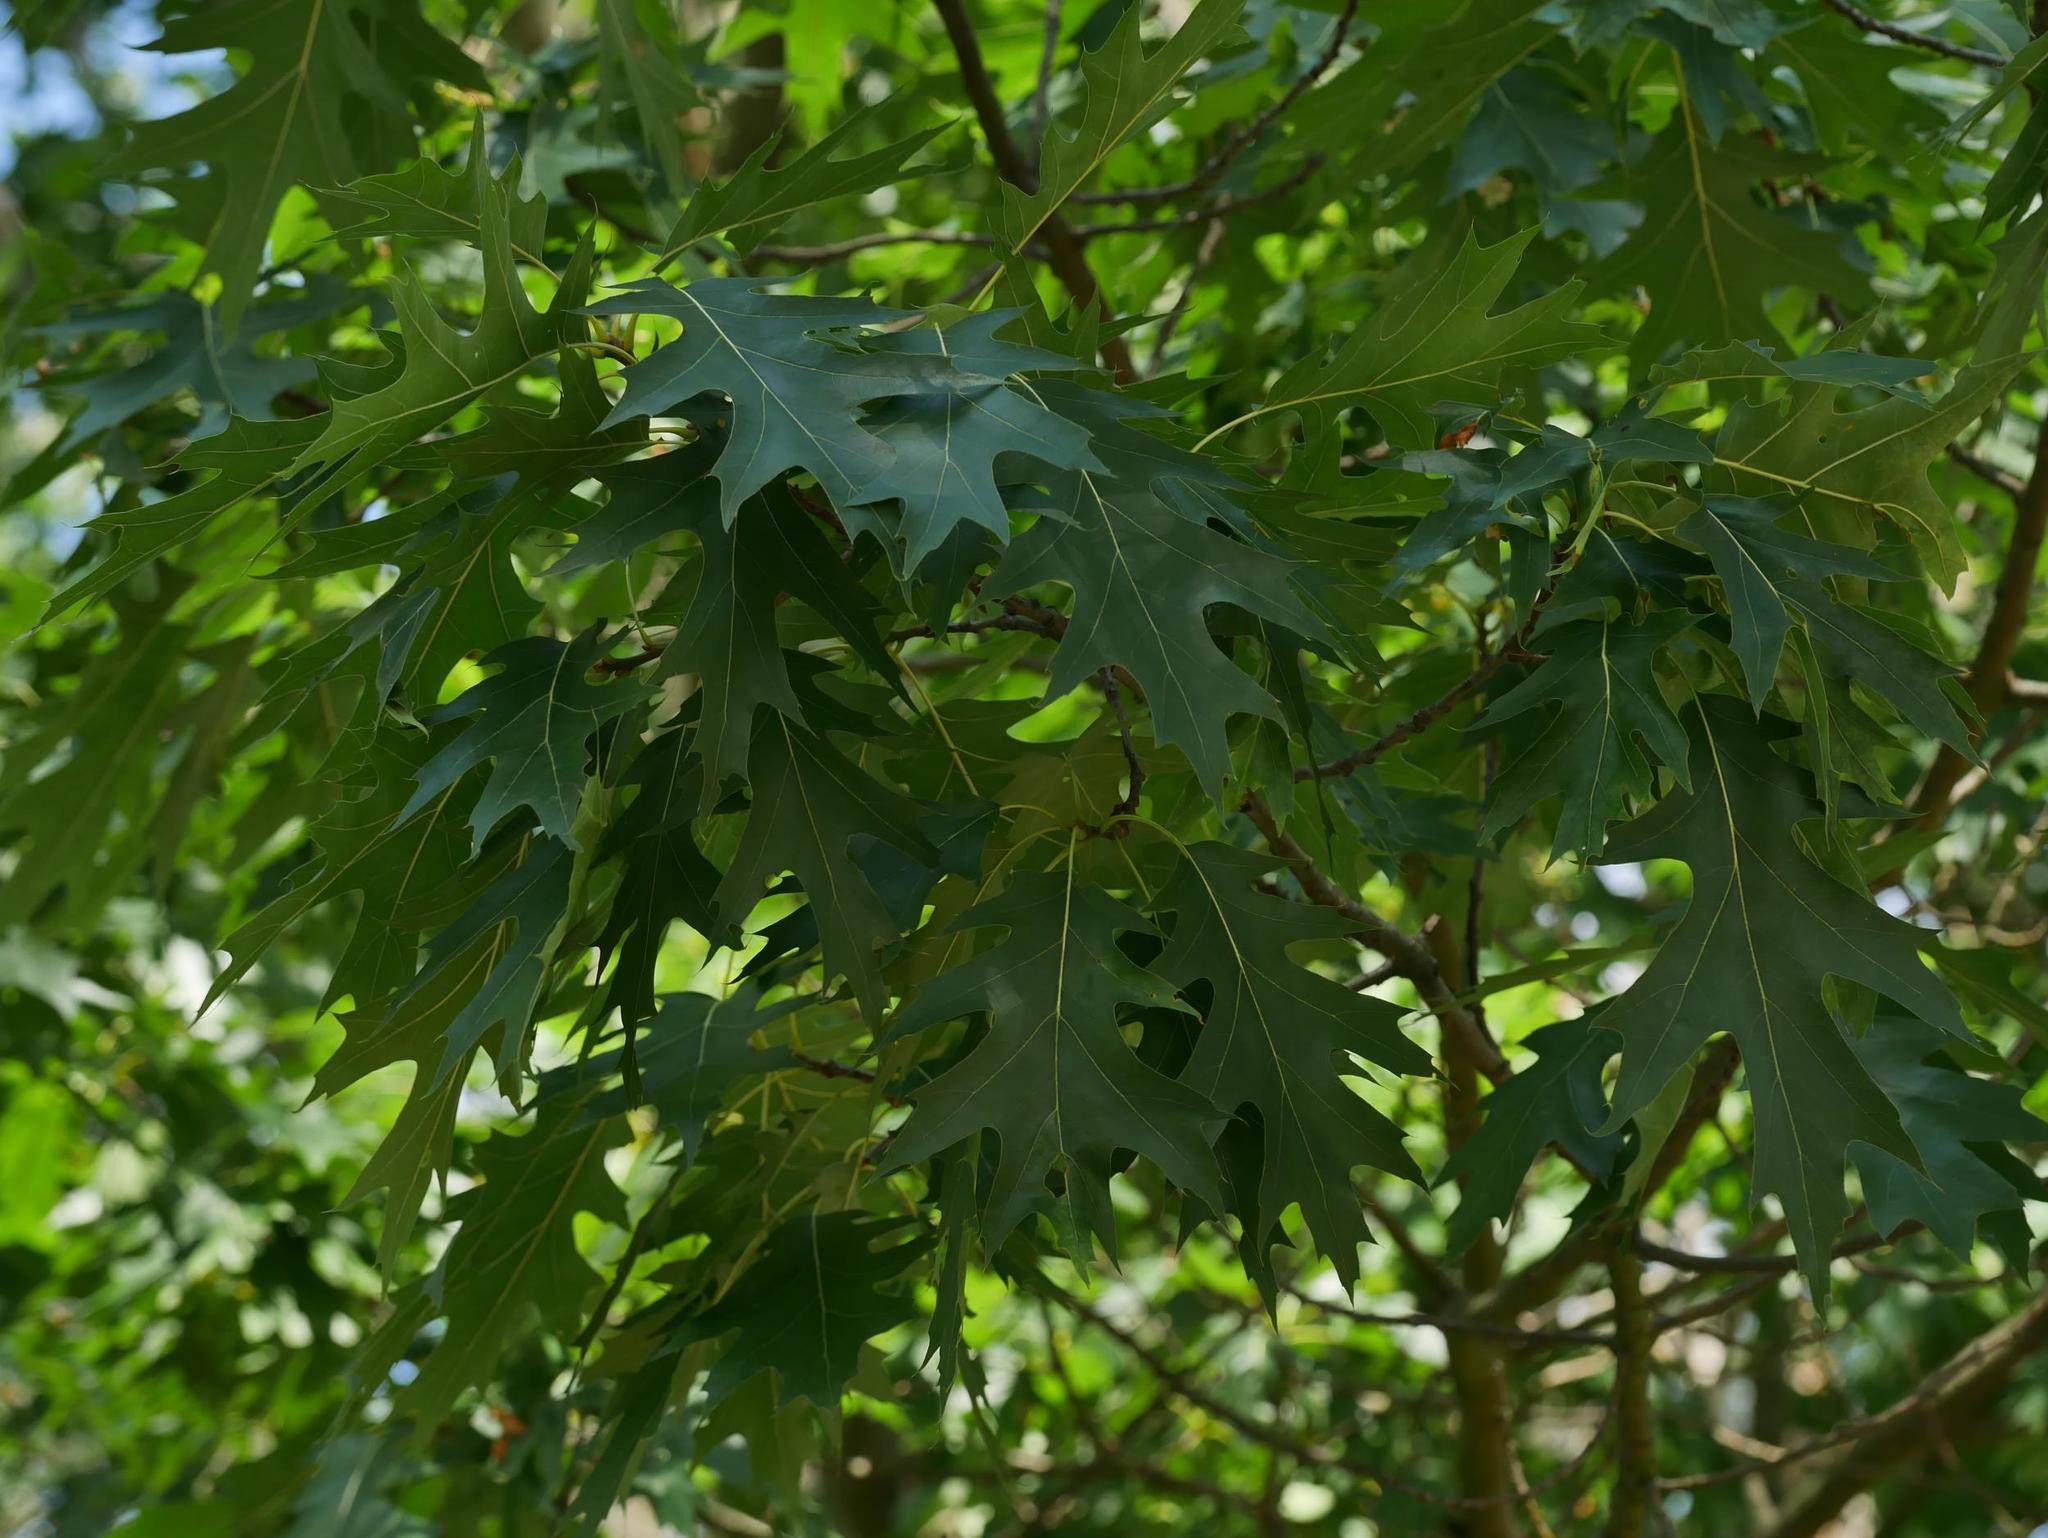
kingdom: Plantae
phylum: Tracheophyta
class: Magnoliopsida
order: Fagales
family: Fagaceae
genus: Quercus
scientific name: Quercus rubra
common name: Red oak
